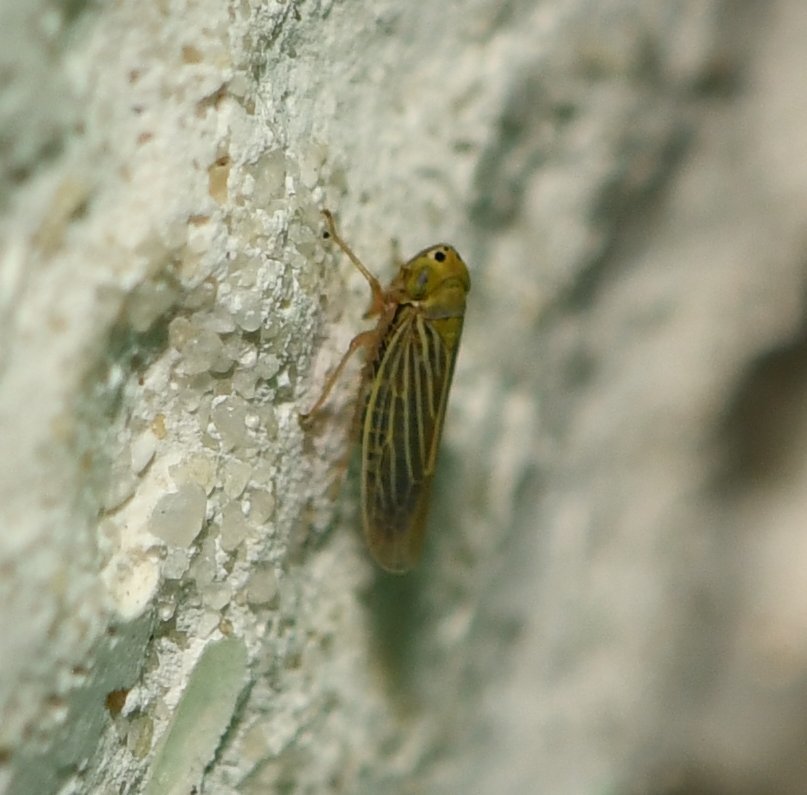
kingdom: Animalia
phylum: Arthropoda
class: Insecta
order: Hemiptera
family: Cicadellidae
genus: Graminella
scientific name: Graminella cognita
